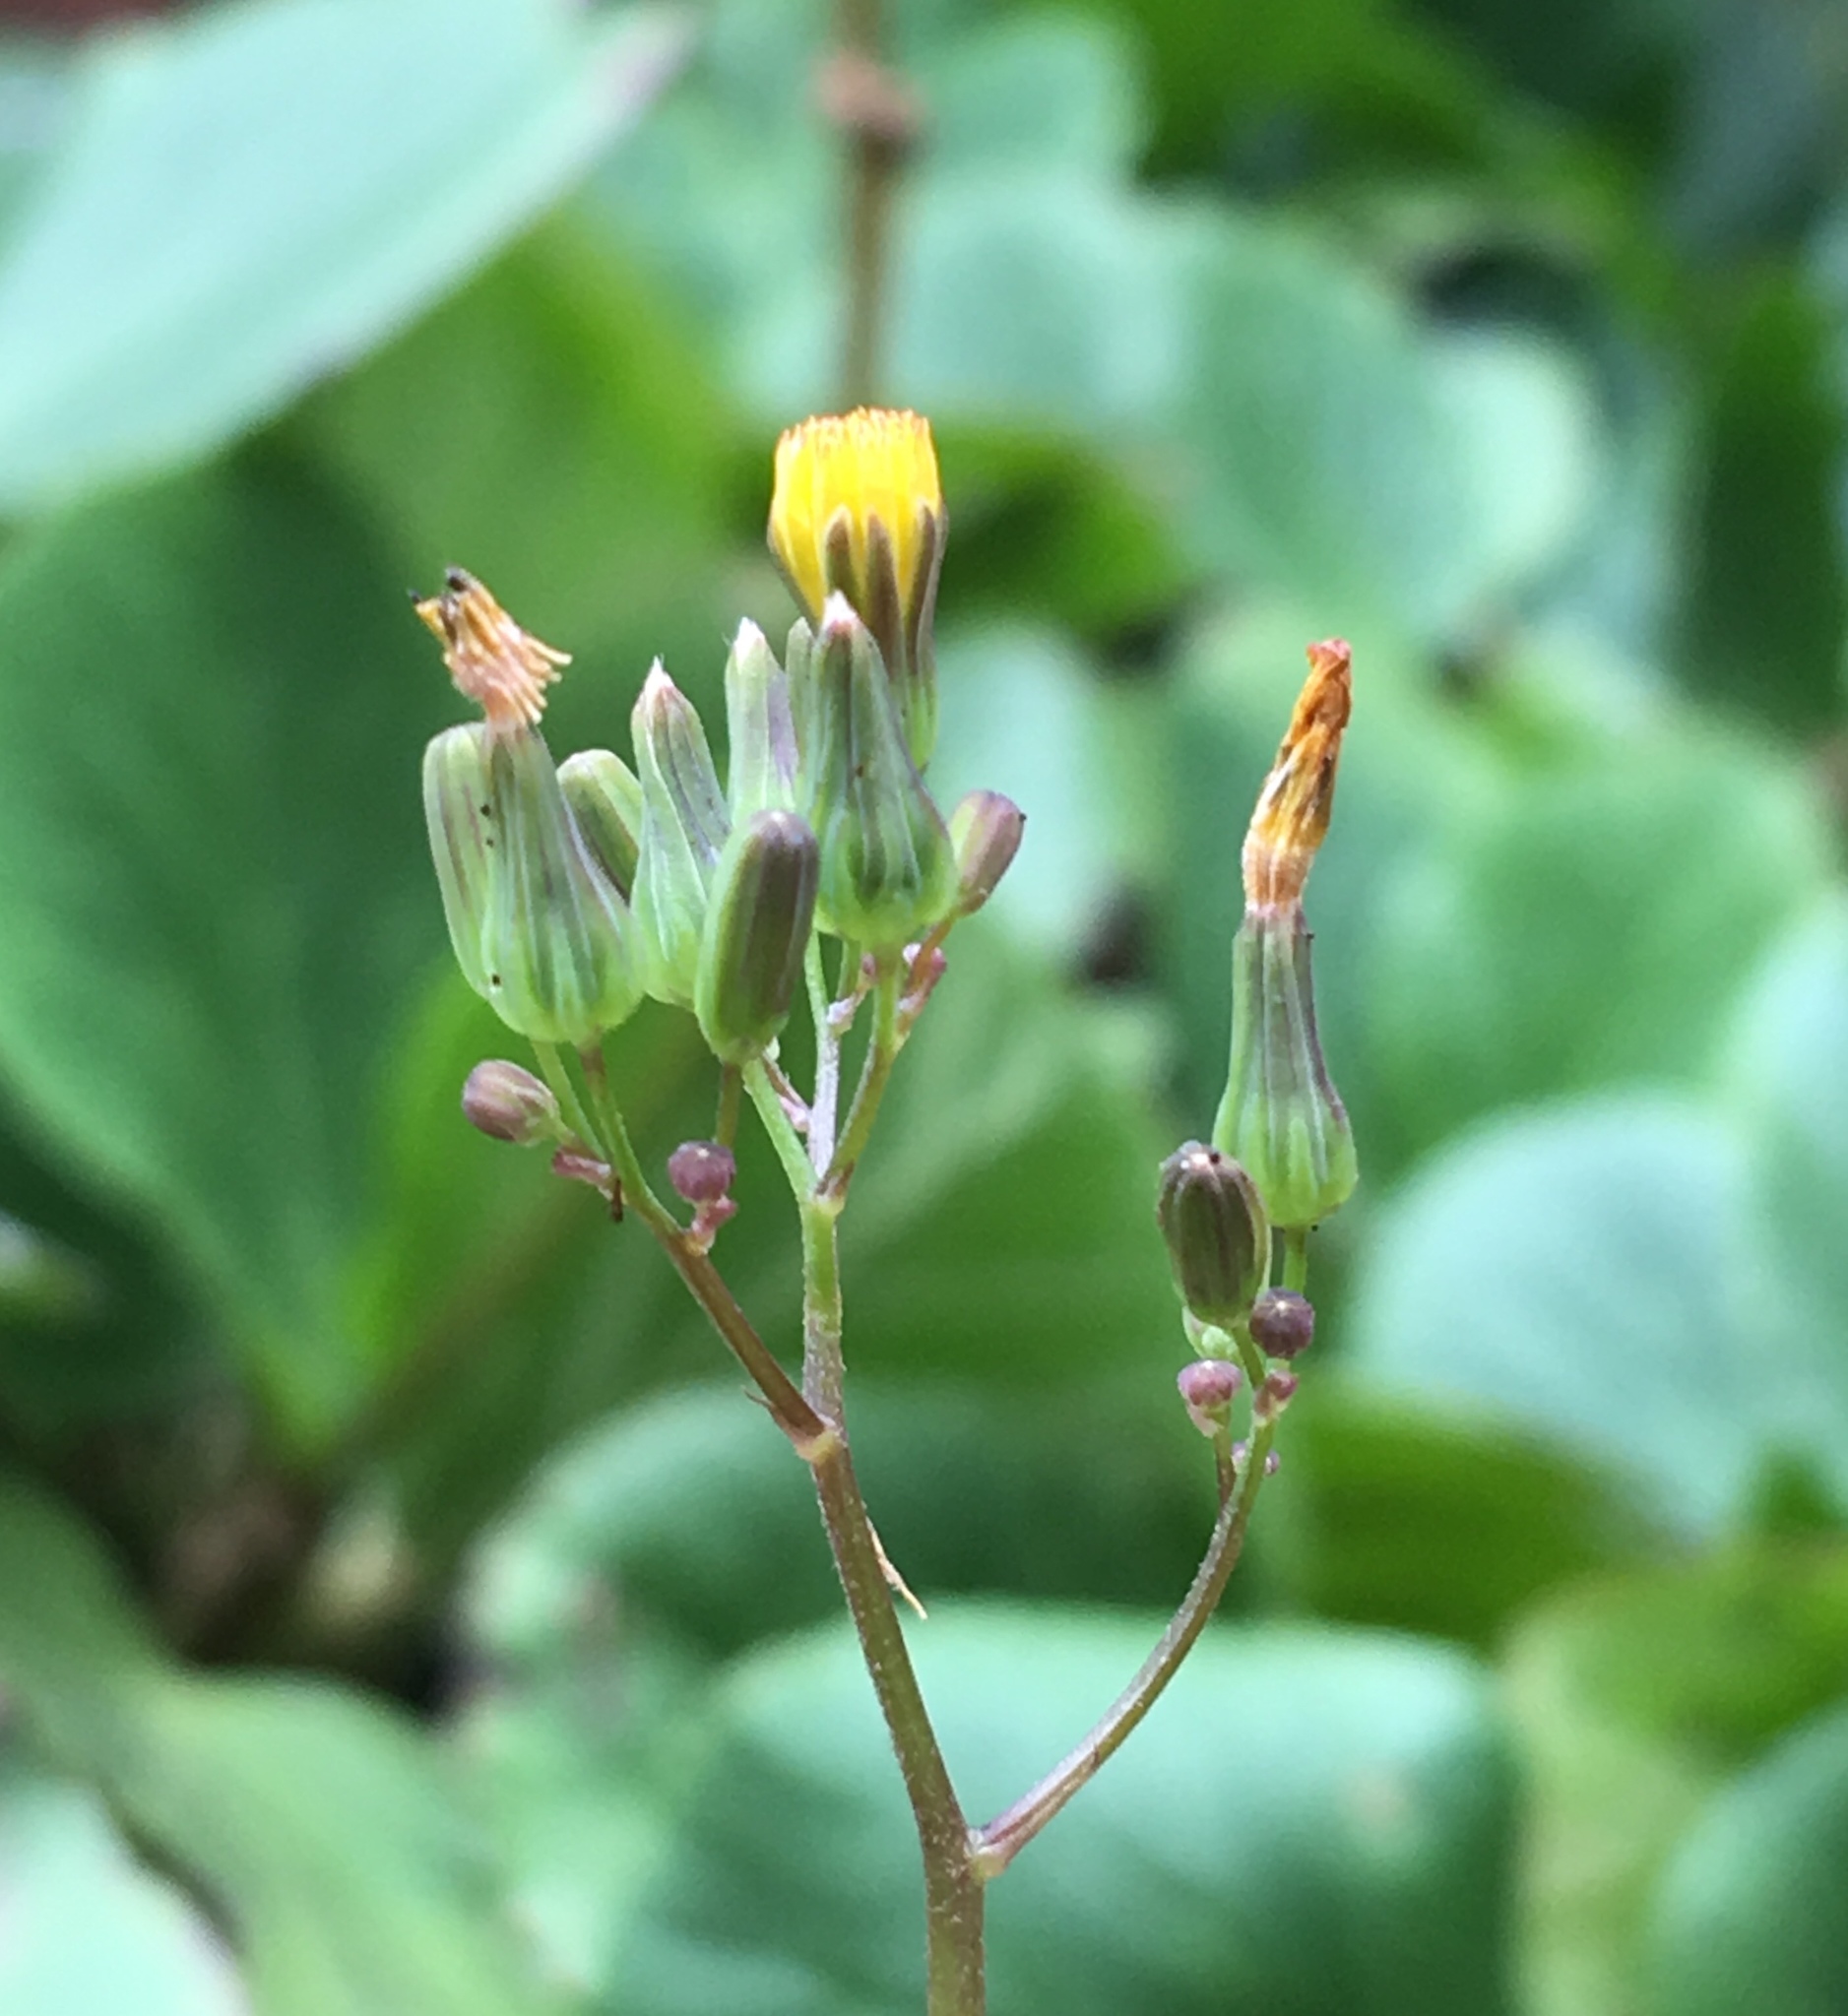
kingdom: Plantae
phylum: Tracheophyta
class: Magnoliopsida
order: Asterales
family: Asteraceae
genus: Youngia
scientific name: Youngia japonica
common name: Oriental false hawksbeard
